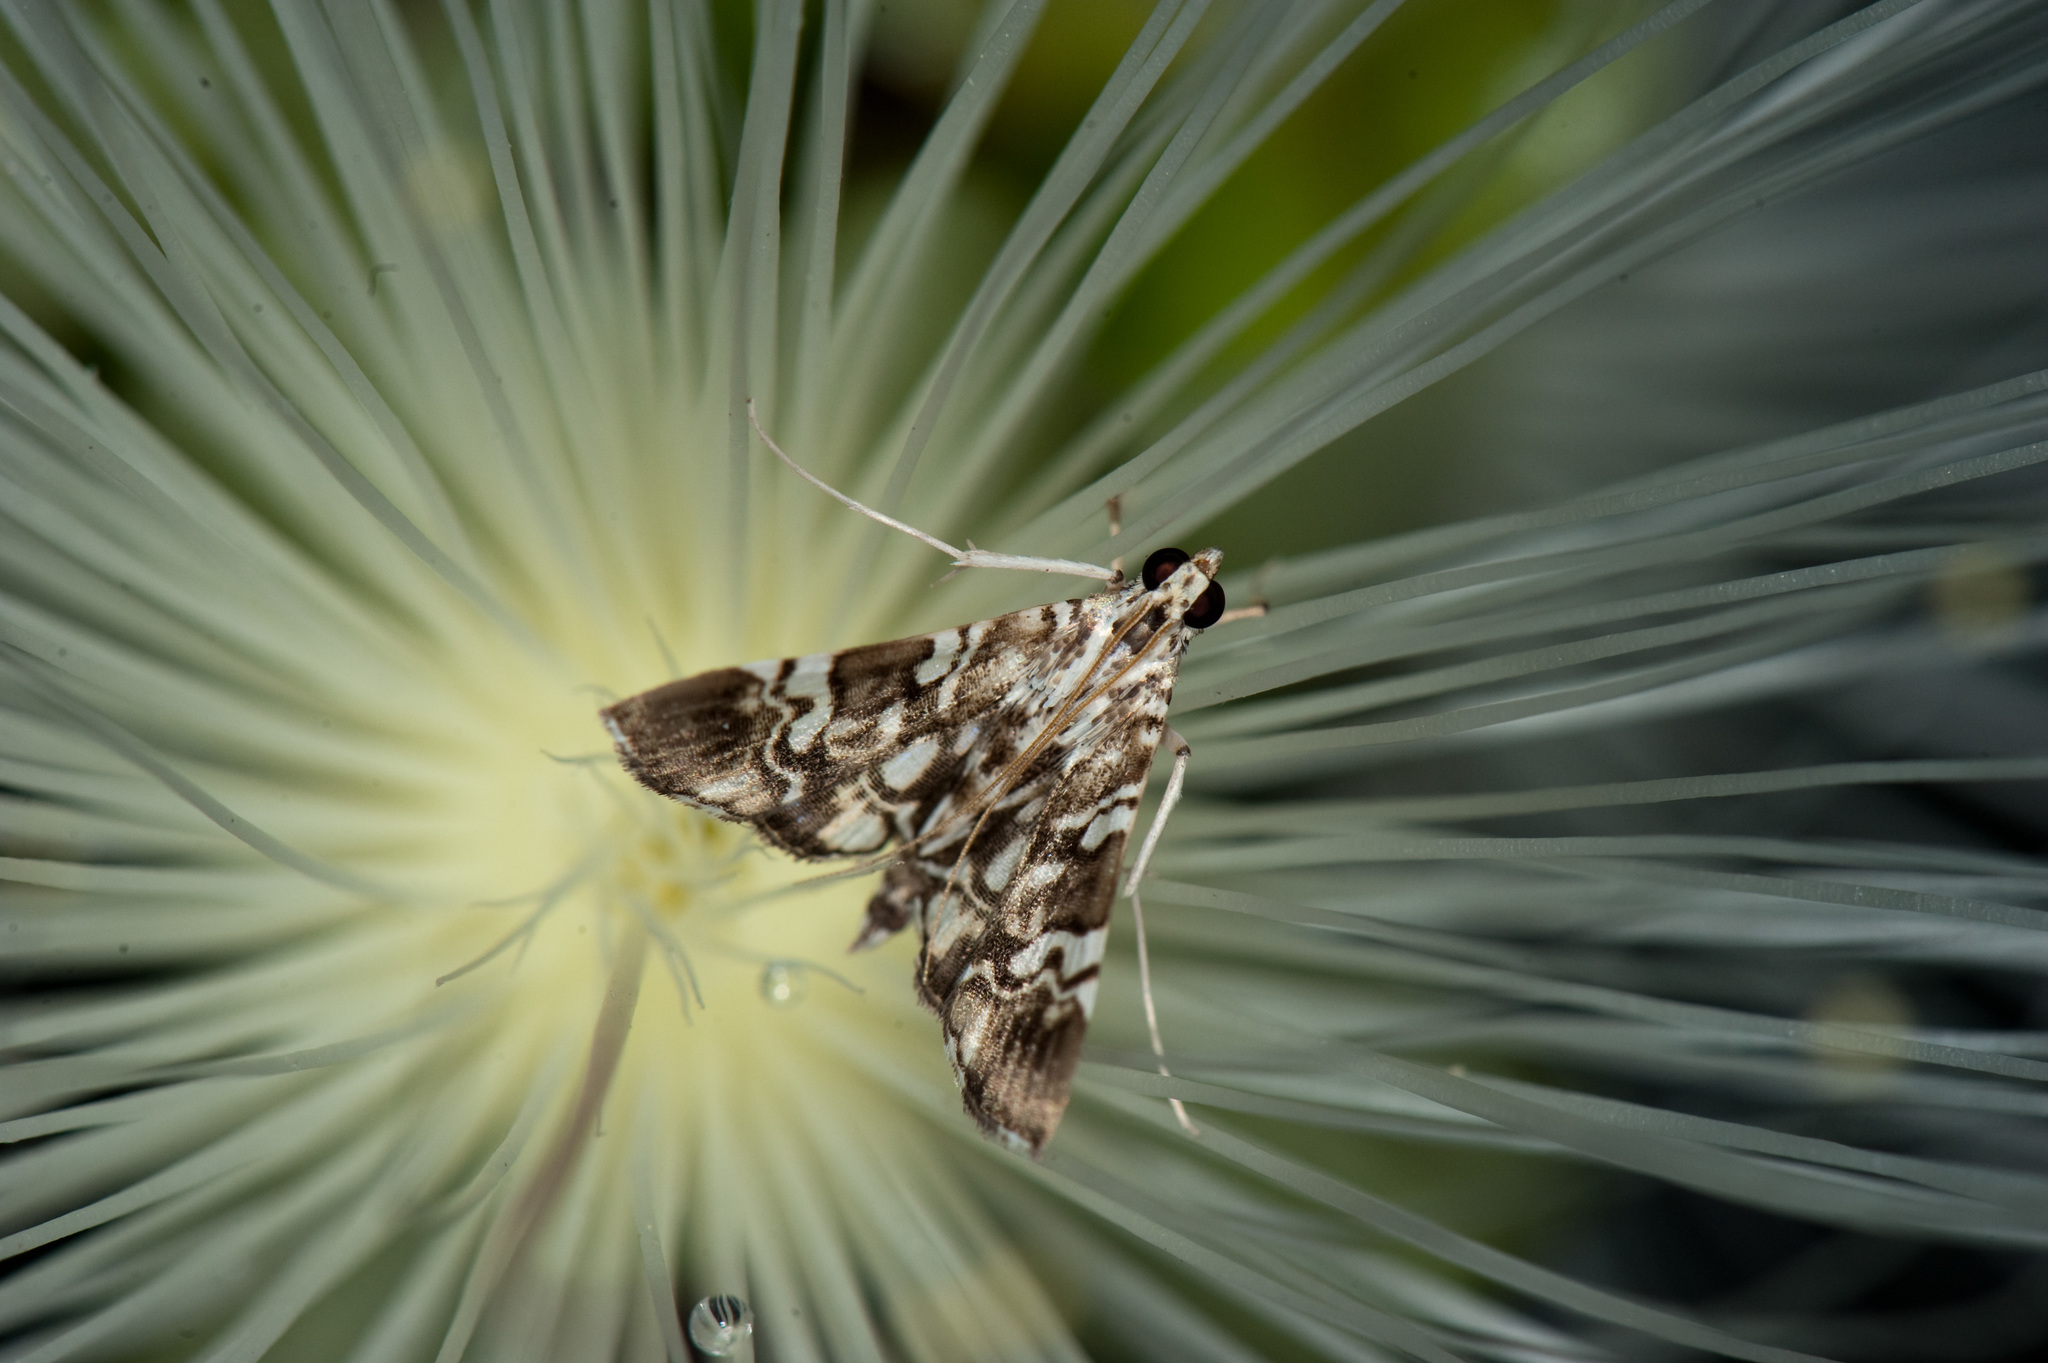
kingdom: Animalia
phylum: Arthropoda
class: Insecta
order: Lepidoptera
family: Crambidae
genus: Chabula
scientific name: Chabula acamasalis
